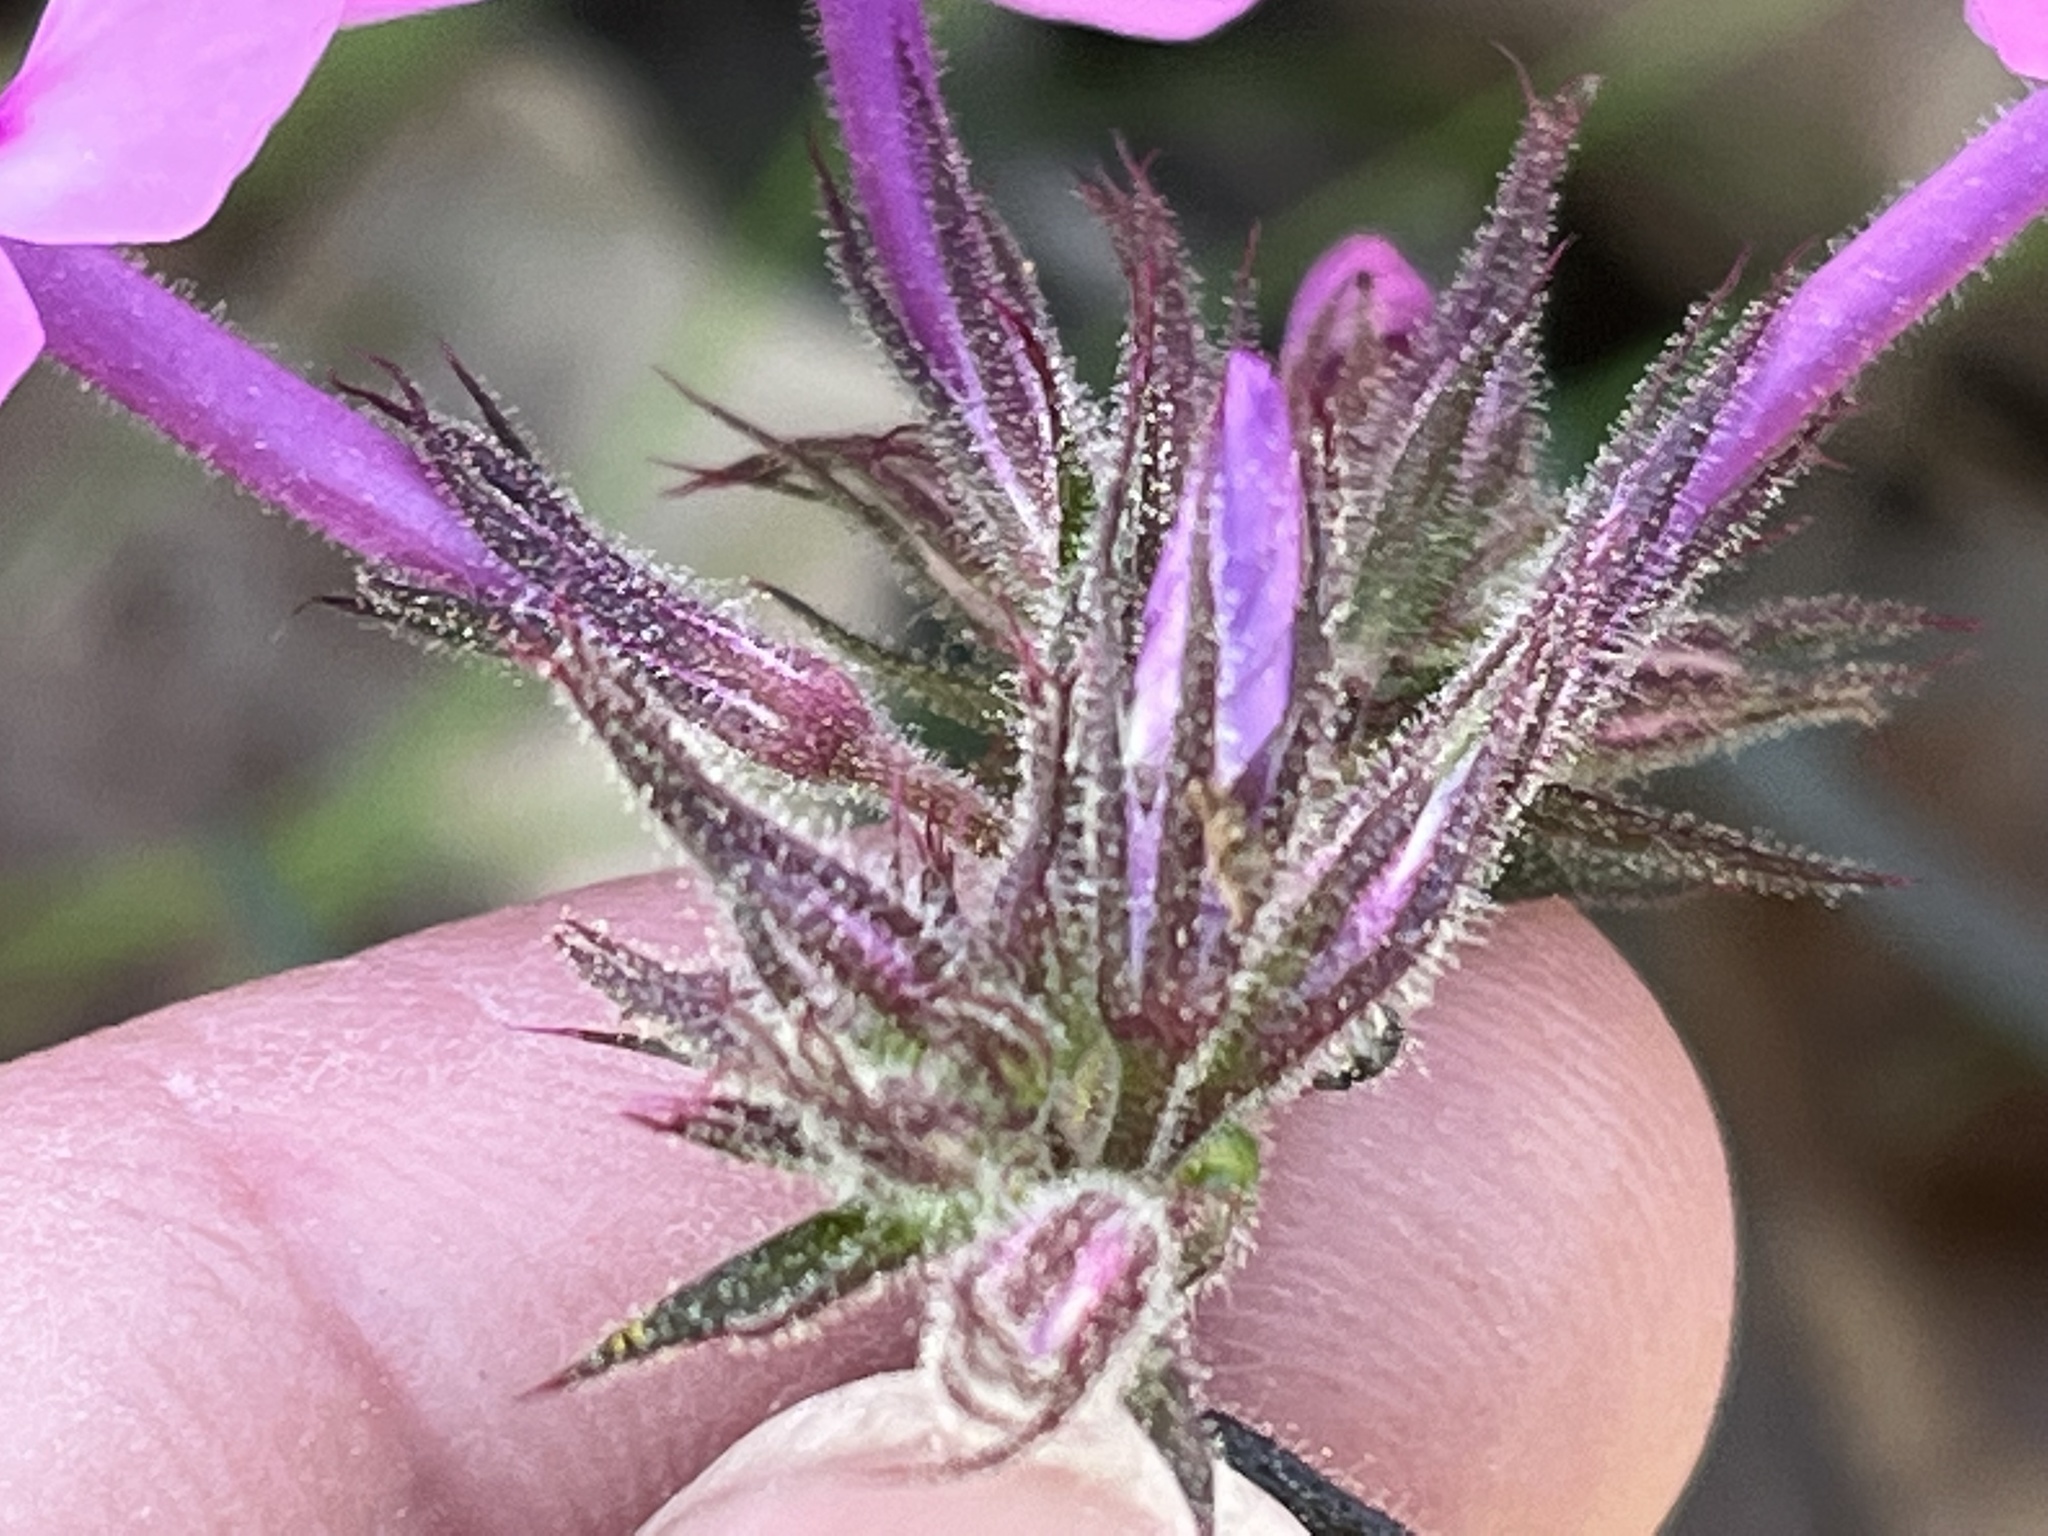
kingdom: Plantae
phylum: Tracheophyta
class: Magnoliopsida
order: Ericales
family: Polemoniaceae
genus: Phlox
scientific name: Phlox pilosa
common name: Prairie phlox
